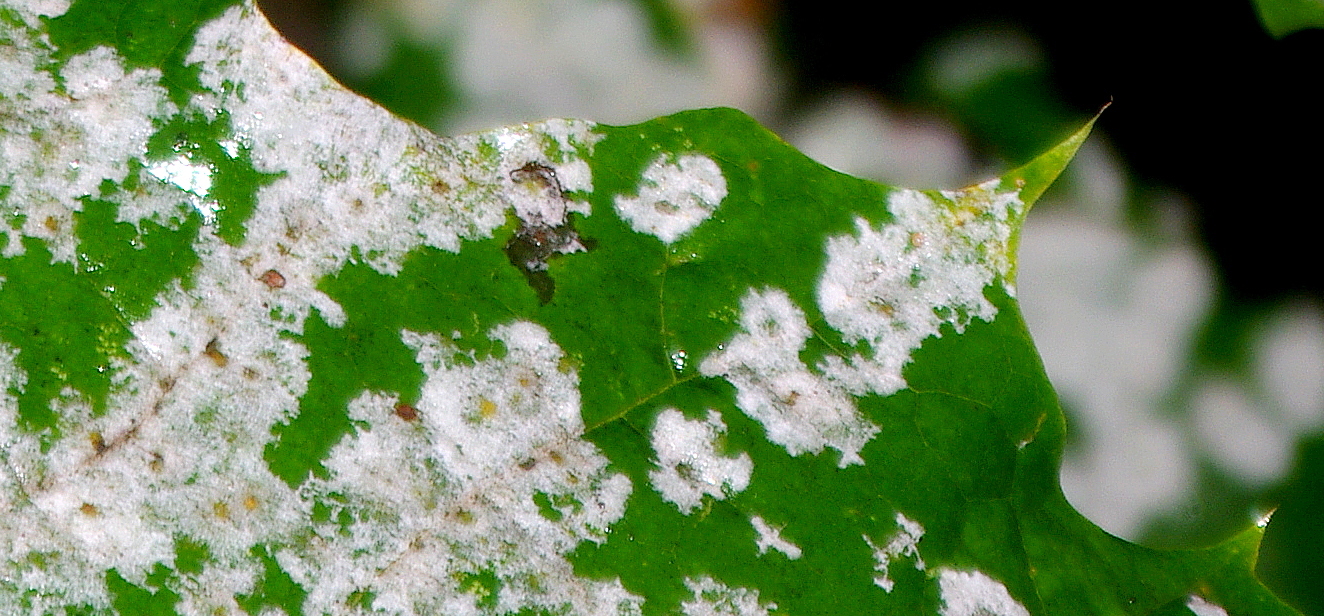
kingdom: Fungi
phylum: Ascomycota
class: Leotiomycetes
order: Helotiales
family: Erysiphaceae
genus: Sawadaea
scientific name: Sawadaea tulasnei
